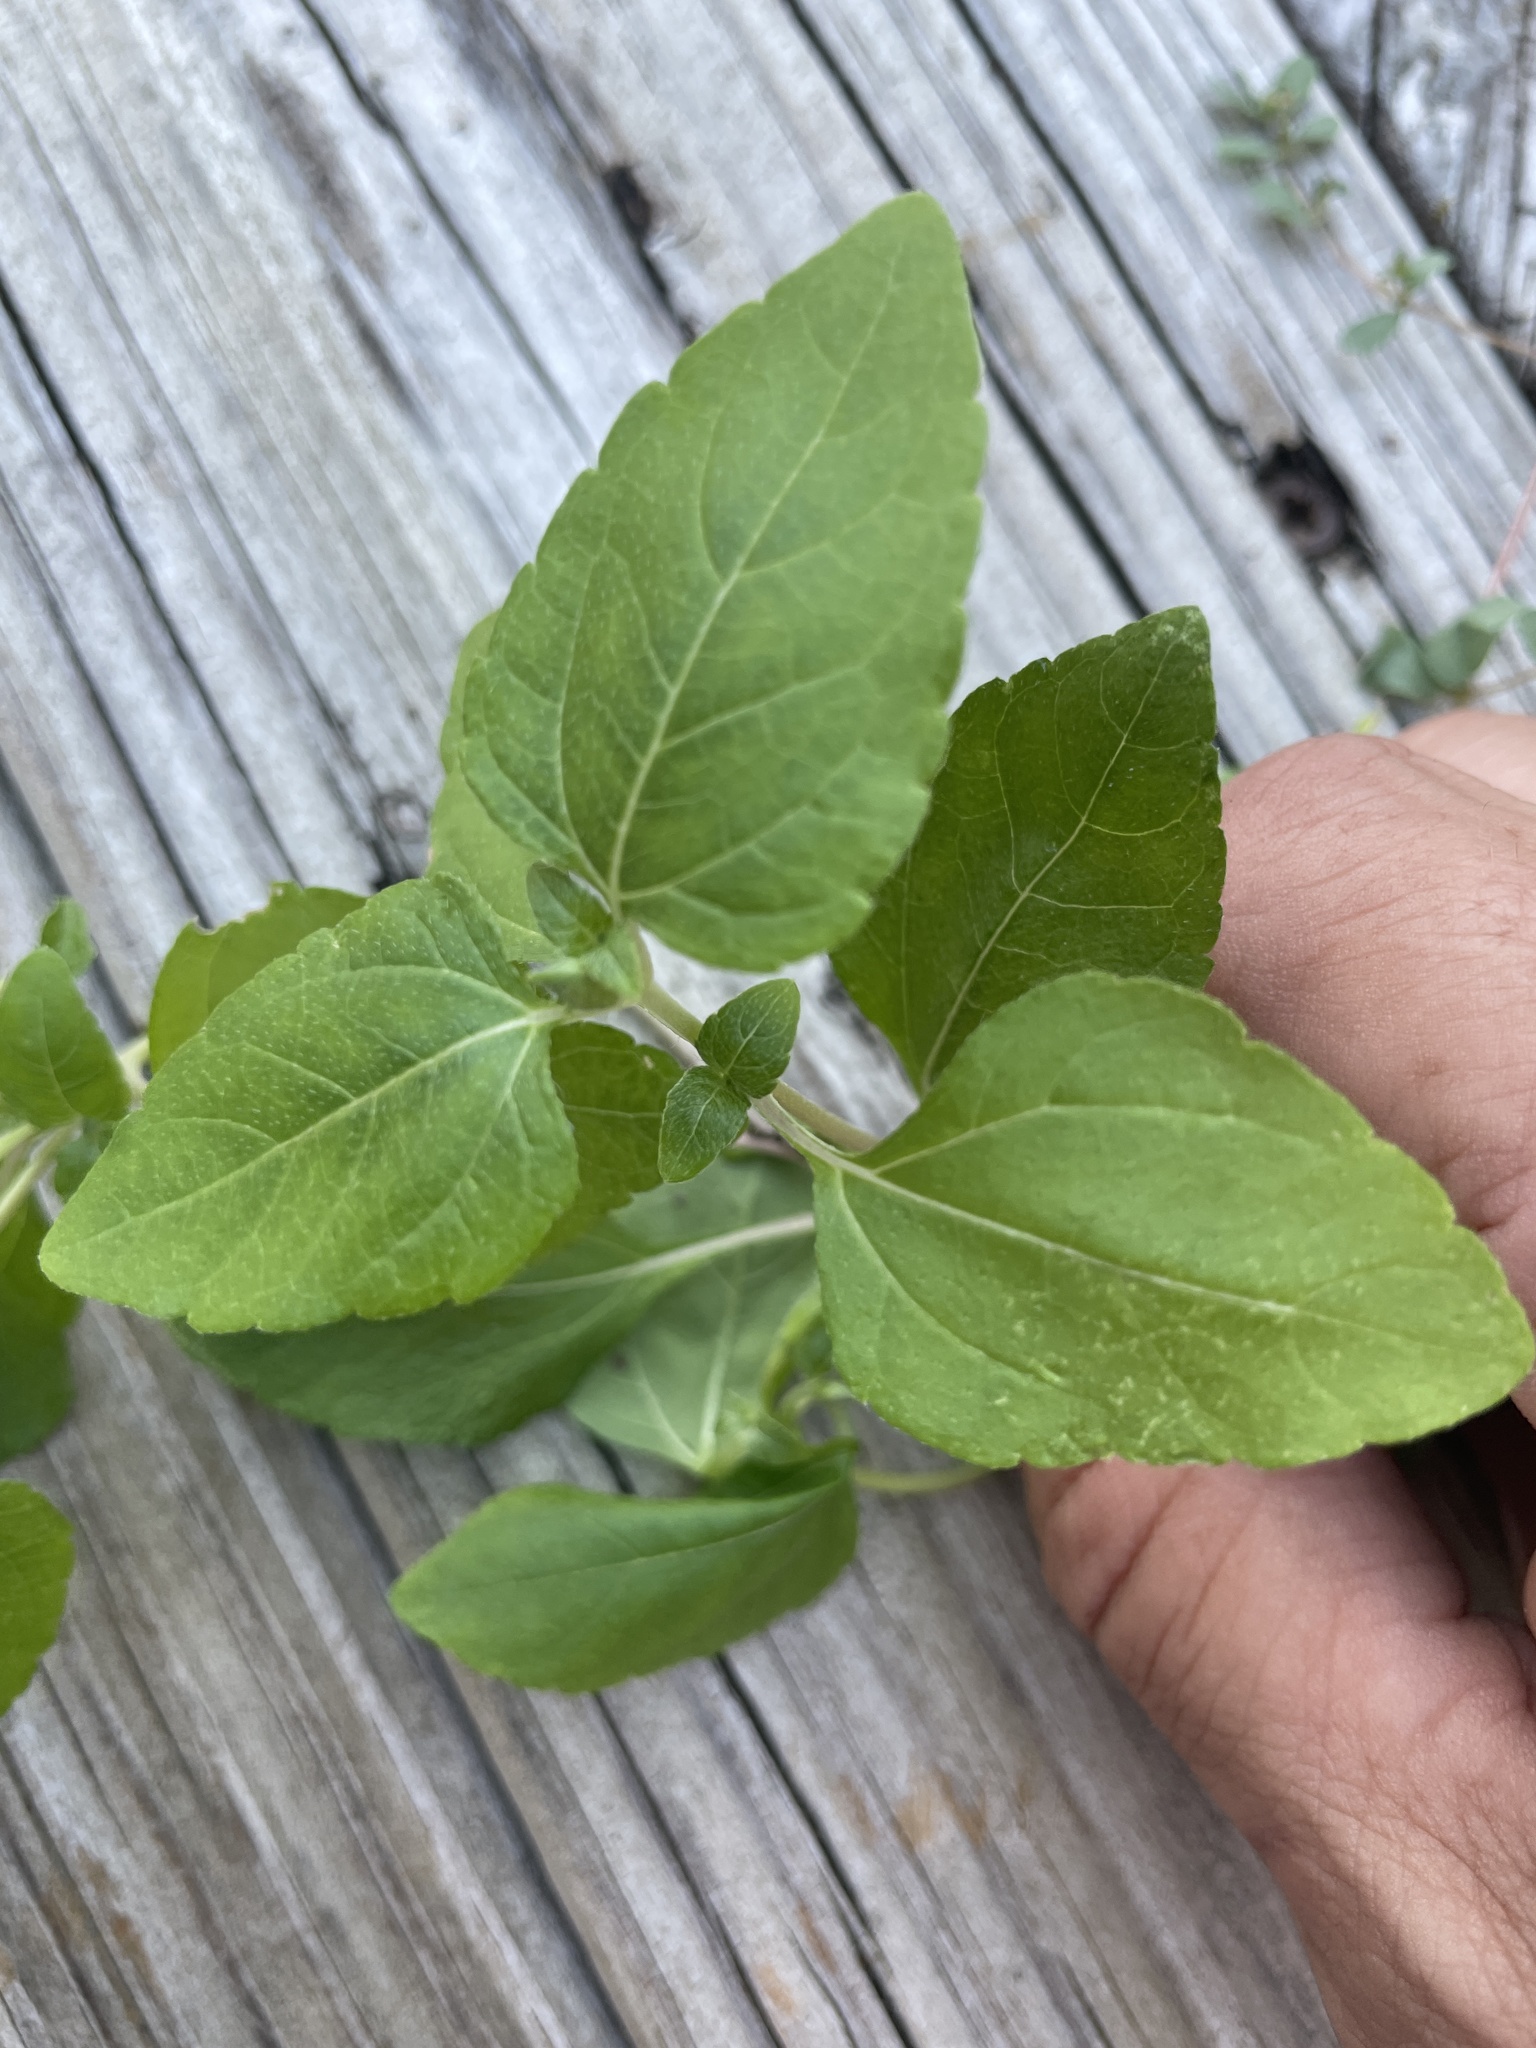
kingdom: Plantae
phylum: Tracheophyta
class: Magnoliopsida
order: Asterales
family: Asteraceae
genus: Calyptocarpus
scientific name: Calyptocarpus vialis
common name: Straggler daisy
